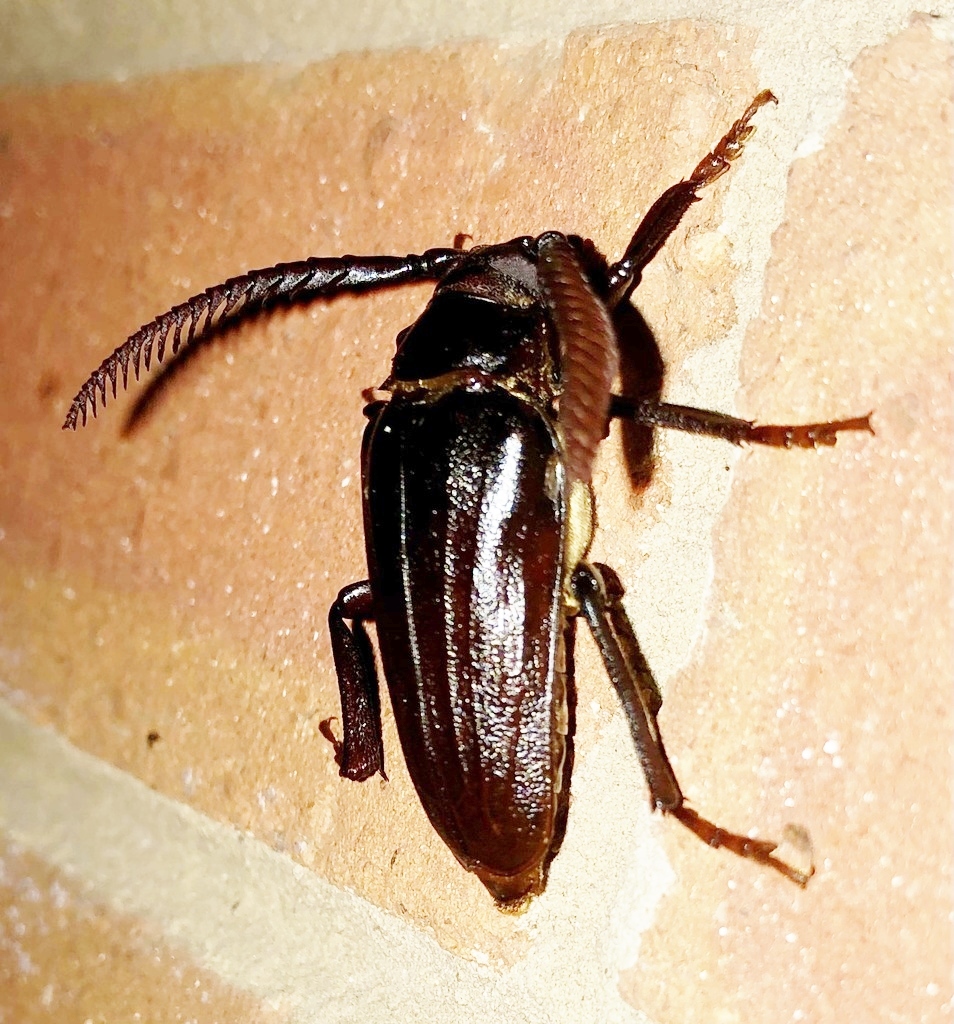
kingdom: Animalia
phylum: Arthropoda
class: Insecta
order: Coleoptera
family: Cerambycidae
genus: Prionus
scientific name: Prionus imbricornis
